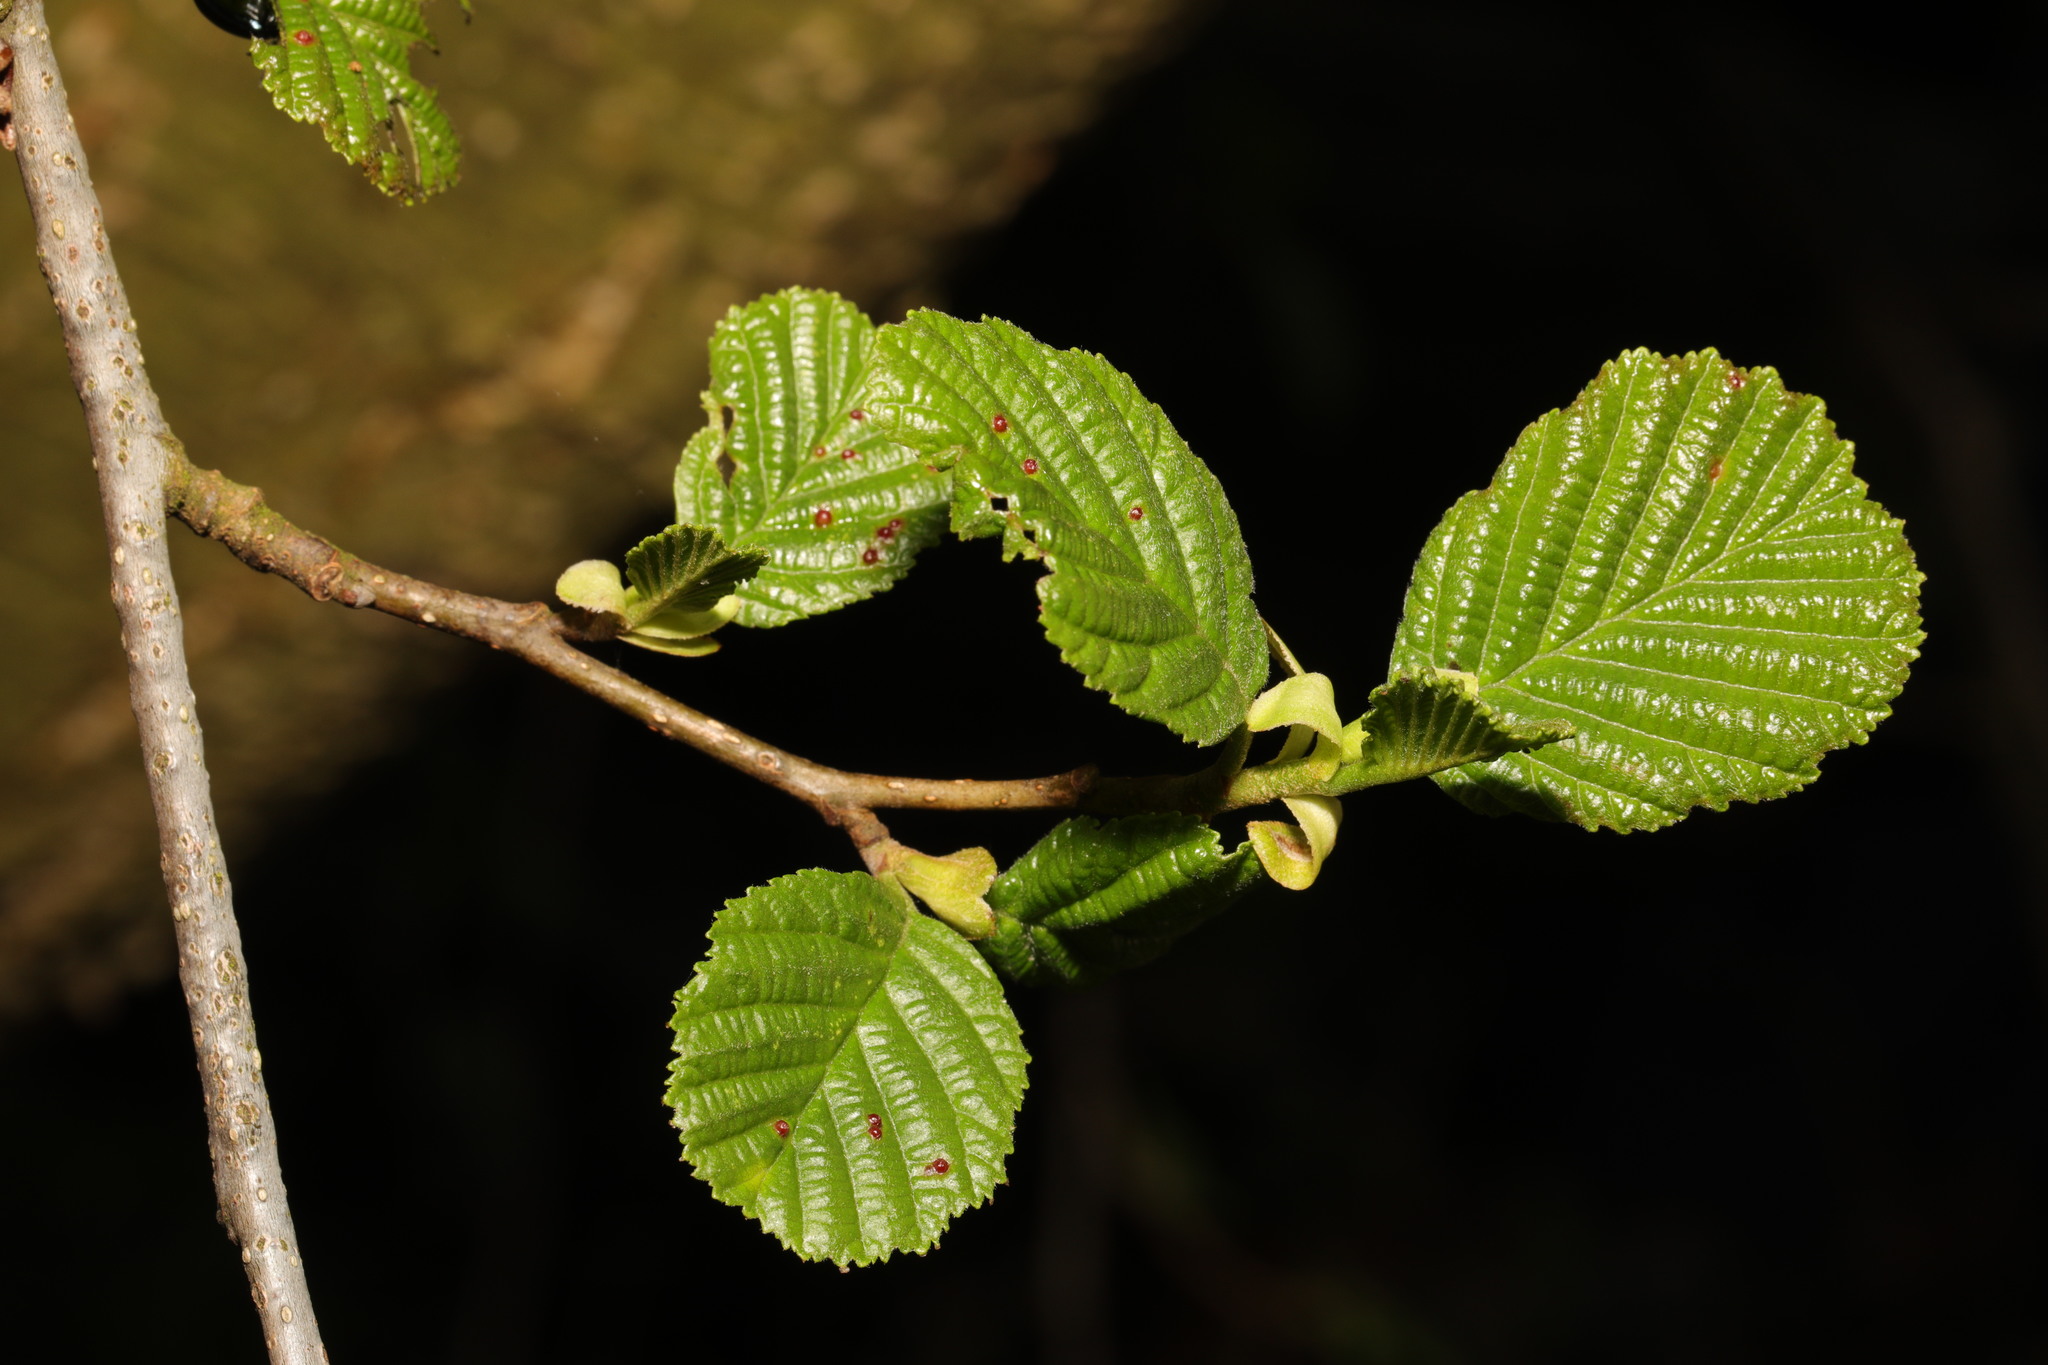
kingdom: Plantae
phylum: Tracheophyta
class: Magnoliopsida
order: Fagales
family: Betulaceae
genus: Alnus
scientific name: Alnus glutinosa
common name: Black alder
